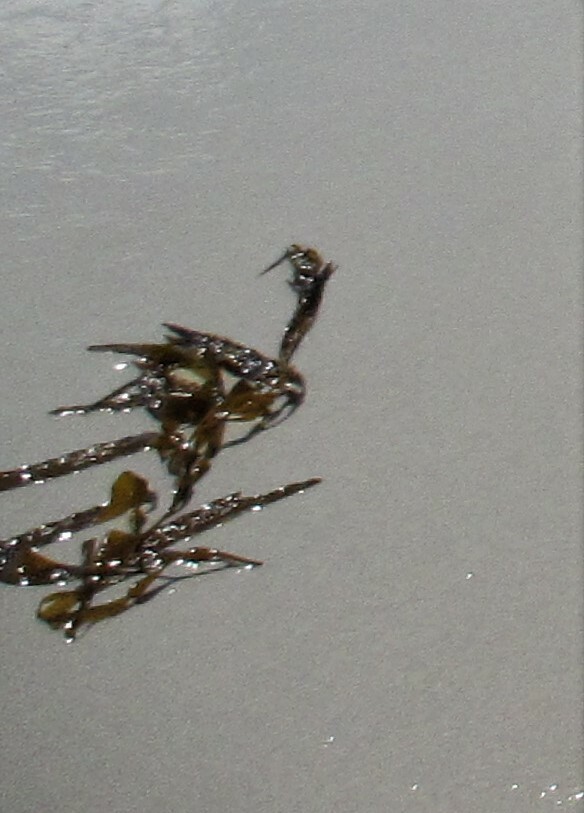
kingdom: Chromista
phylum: Ochrophyta
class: Phaeophyceae
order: Laminariales
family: Laminariaceae
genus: Macrocystis
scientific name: Macrocystis pyrifera
